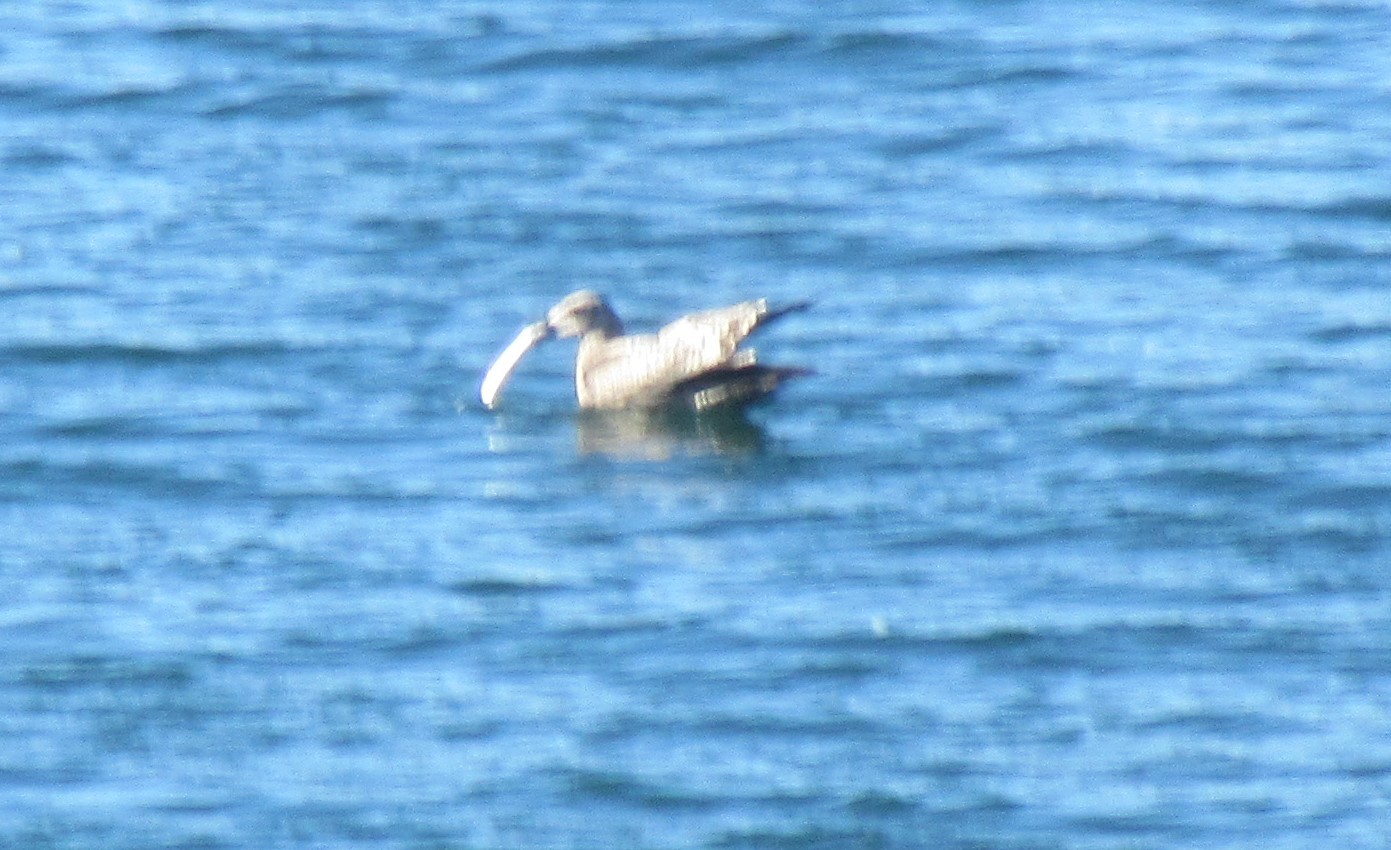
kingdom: Animalia
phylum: Chordata
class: Aves
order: Charadriiformes
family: Laridae
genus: Larus
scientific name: Larus argentatus
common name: Herring gull
